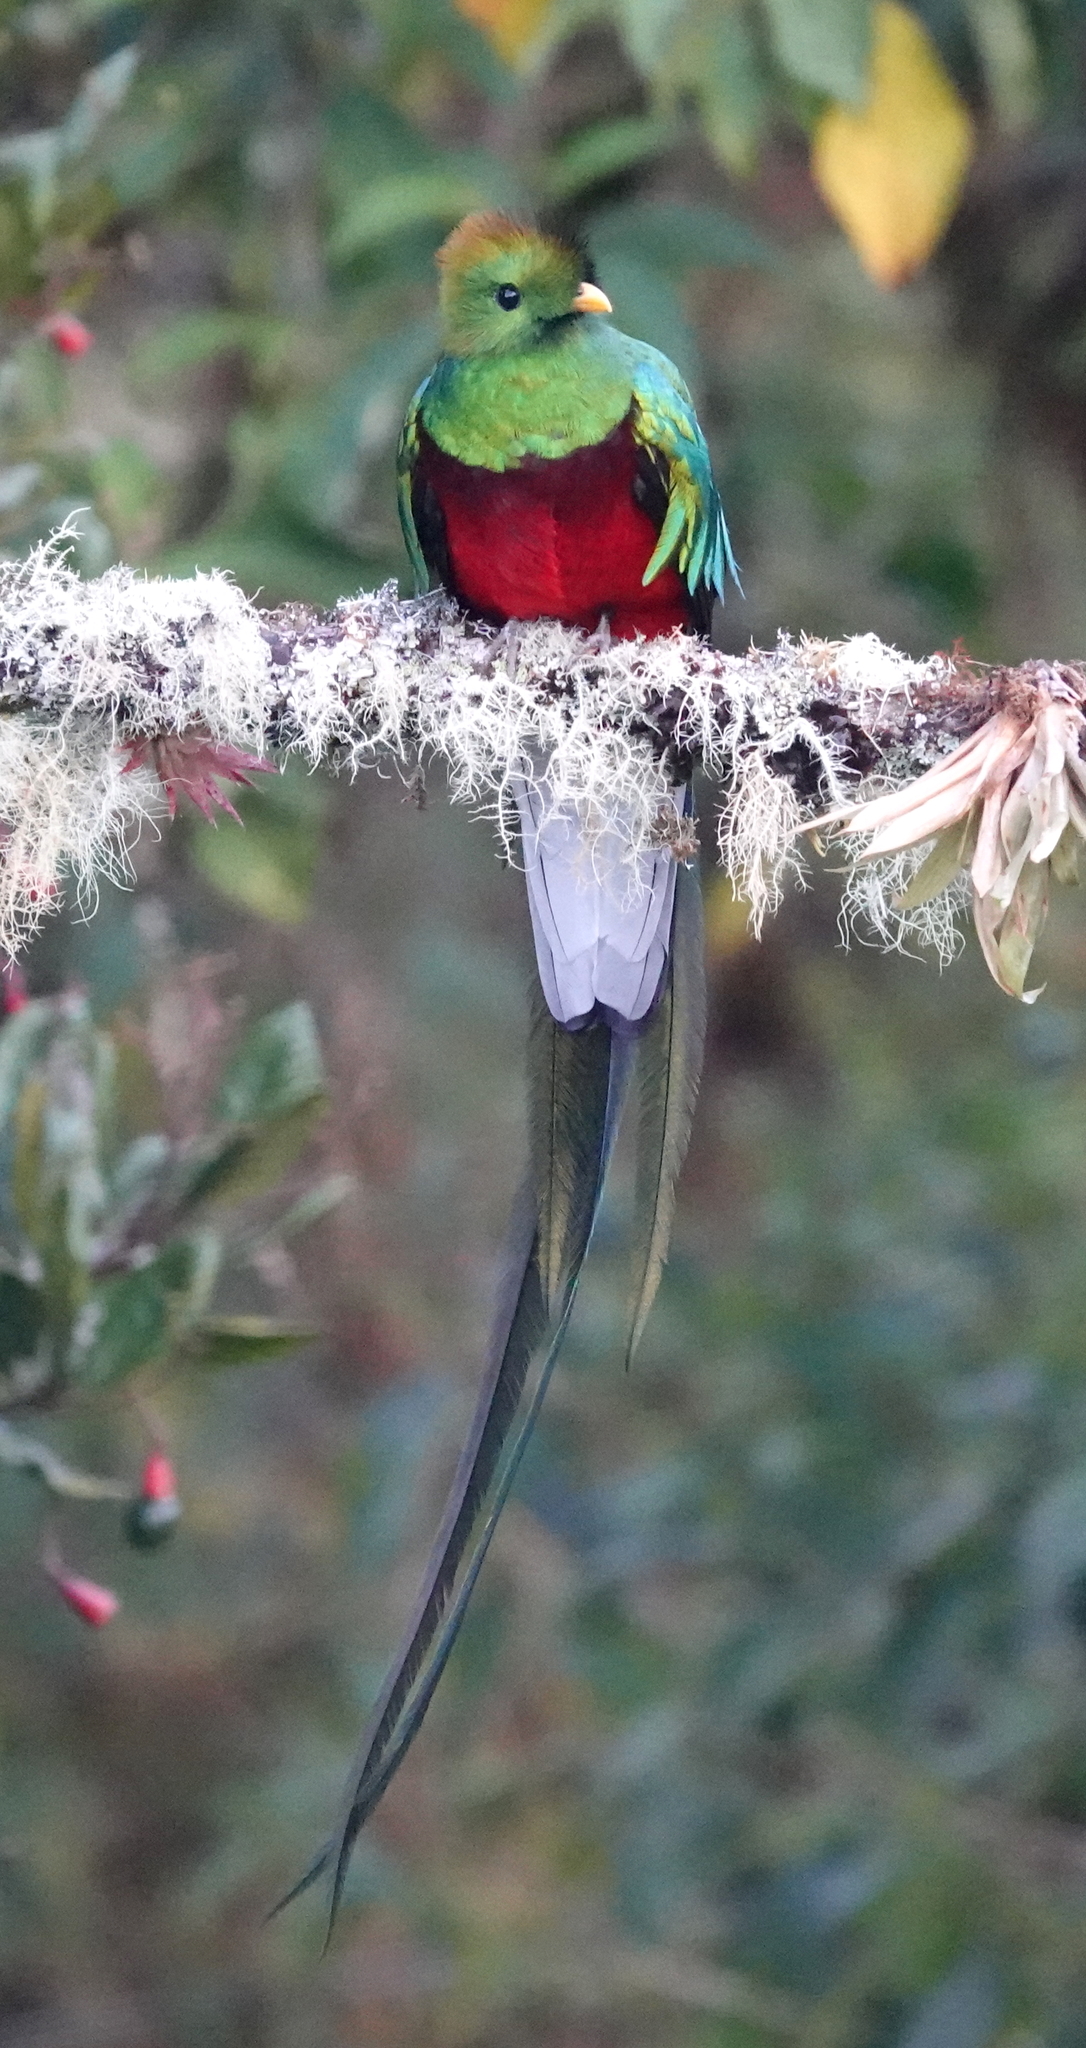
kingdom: Animalia
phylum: Chordata
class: Aves
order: Trogoniformes
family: Trogonidae
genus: Pharomachrus
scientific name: Pharomachrus mocinno
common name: Resplendent quetzal
